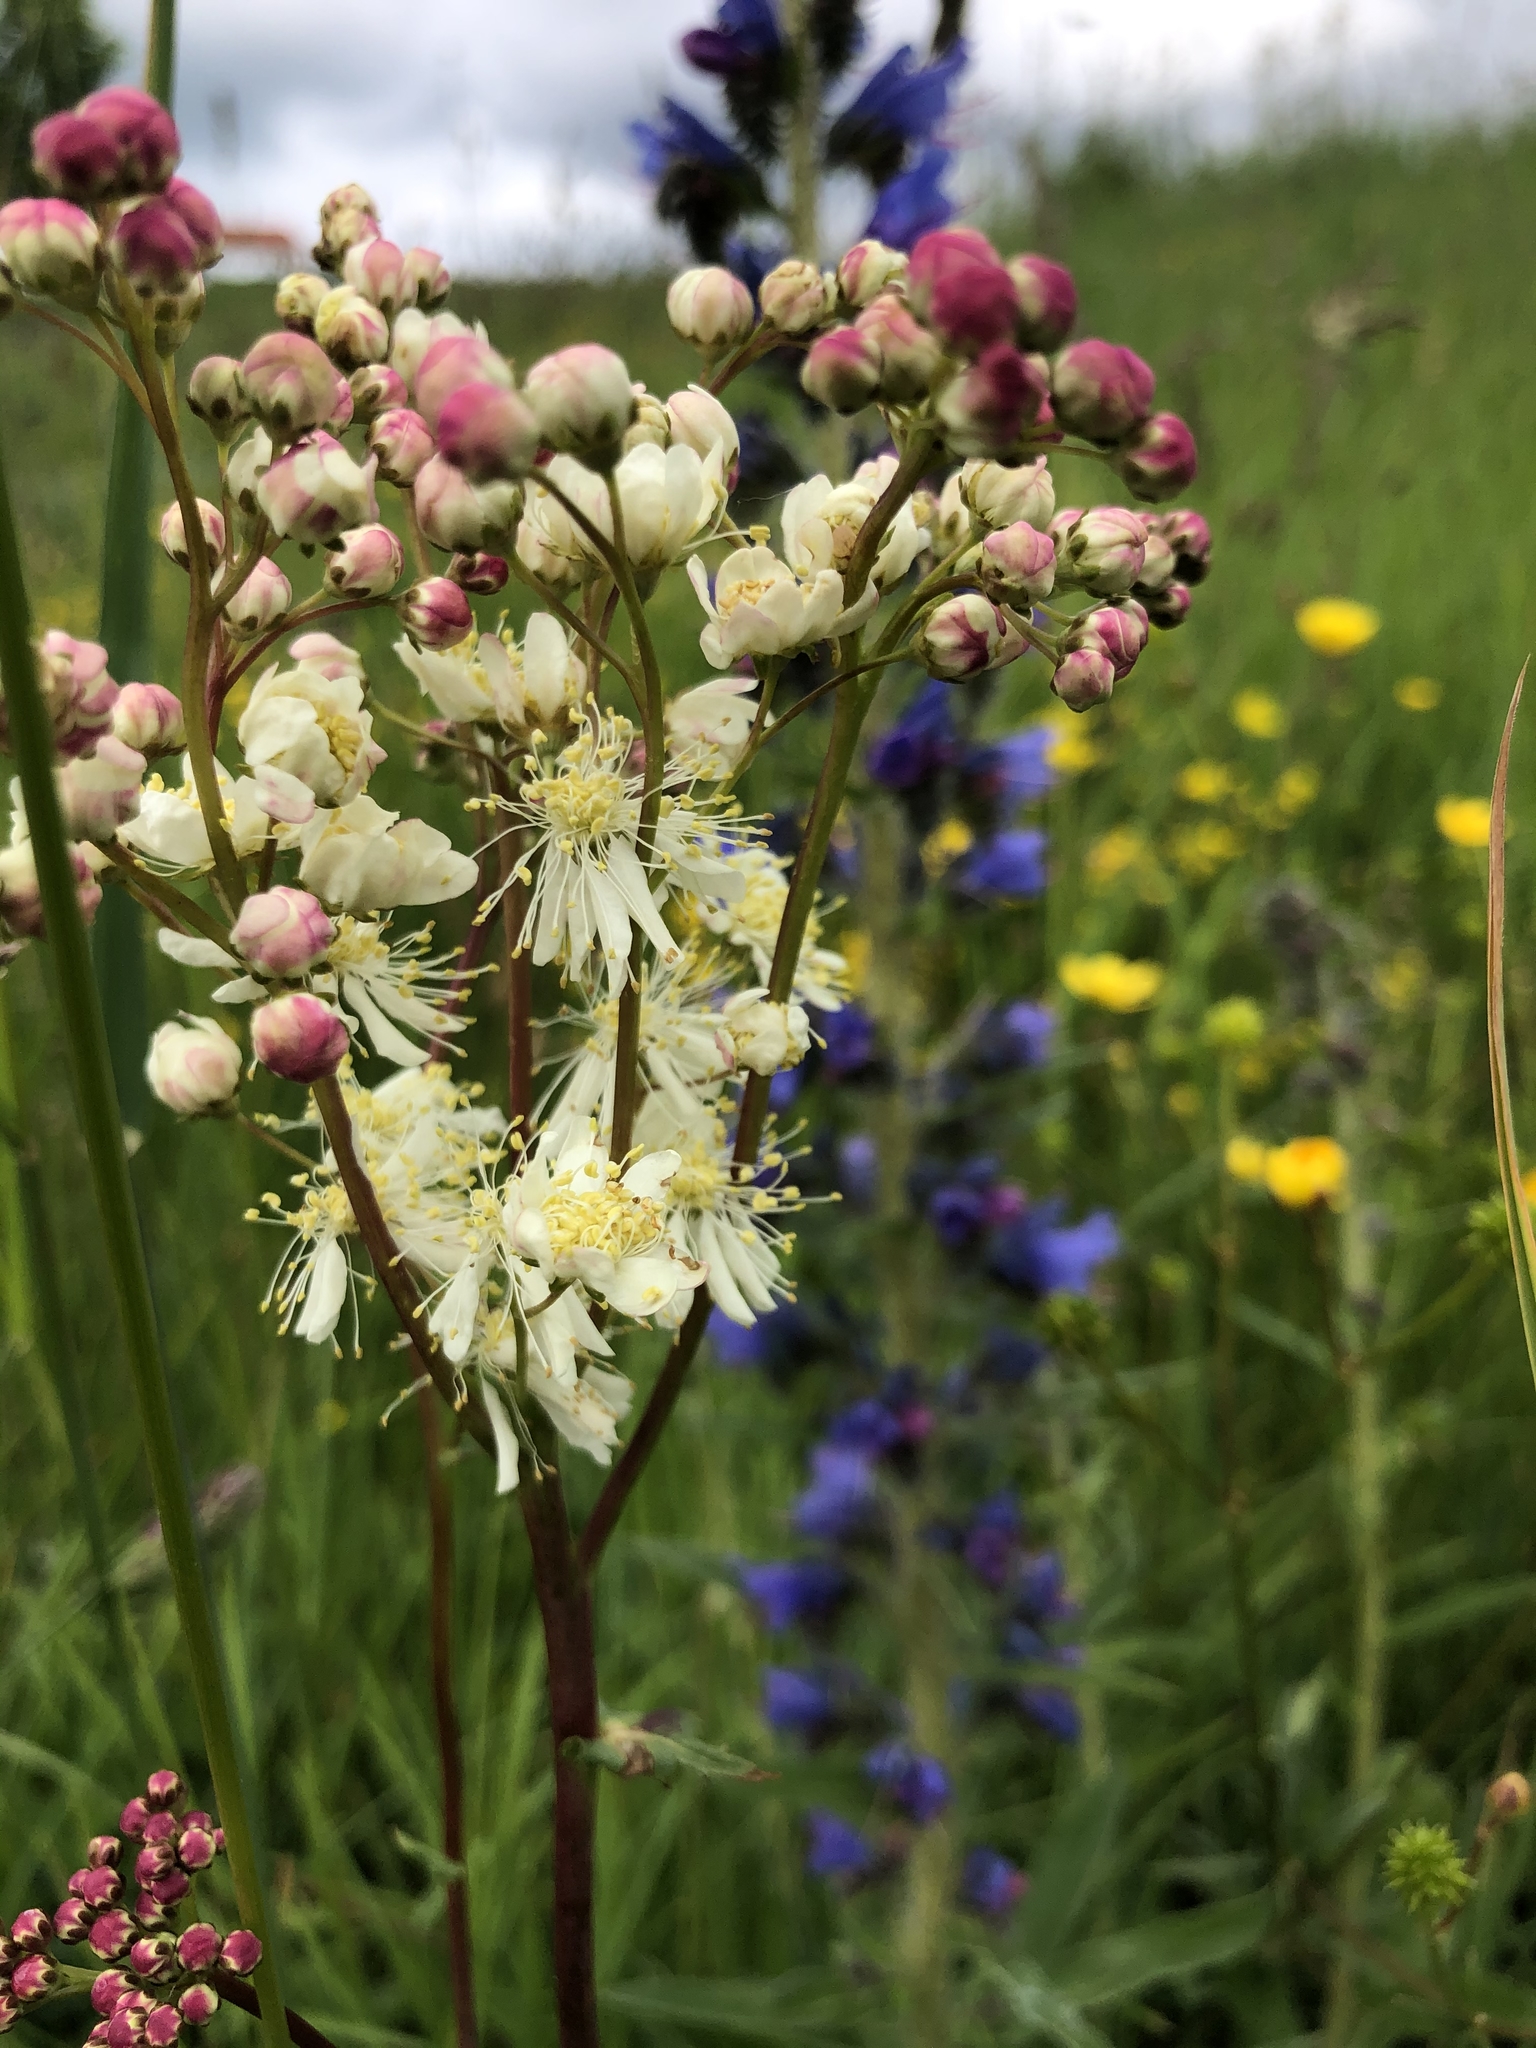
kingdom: Plantae
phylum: Tracheophyta
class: Magnoliopsida
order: Rosales
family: Rosaceae
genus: Filipendula
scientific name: Filipendula vulgaris
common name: Dropwort
